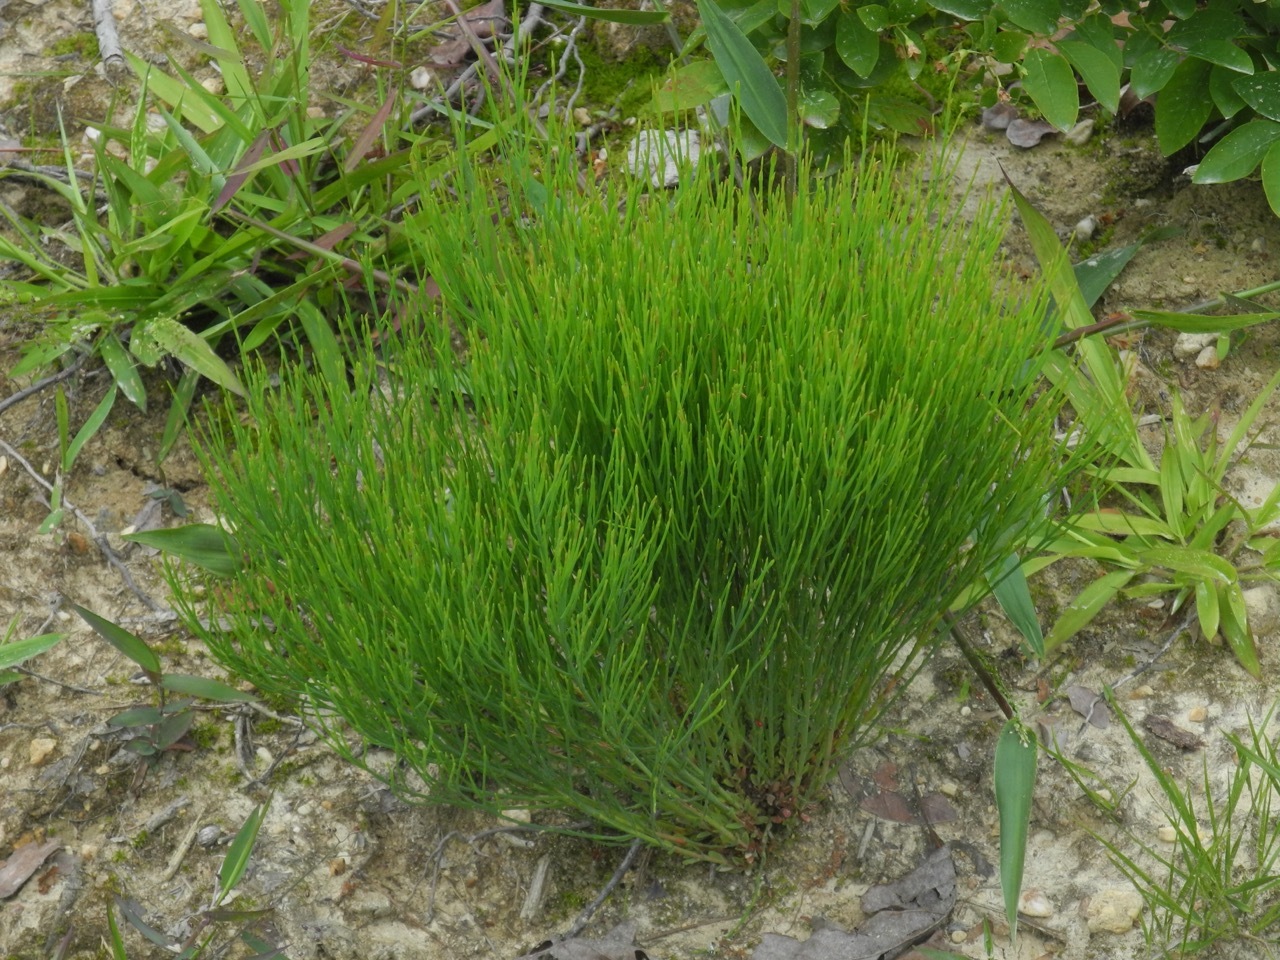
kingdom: Plantae
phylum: Tracheophyta
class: Magnoliopsida
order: Malpighiales
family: Hypericaceae
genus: Hypericum
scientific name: Hypericum gentianoides
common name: Gentian-leaved st. john's-wort
